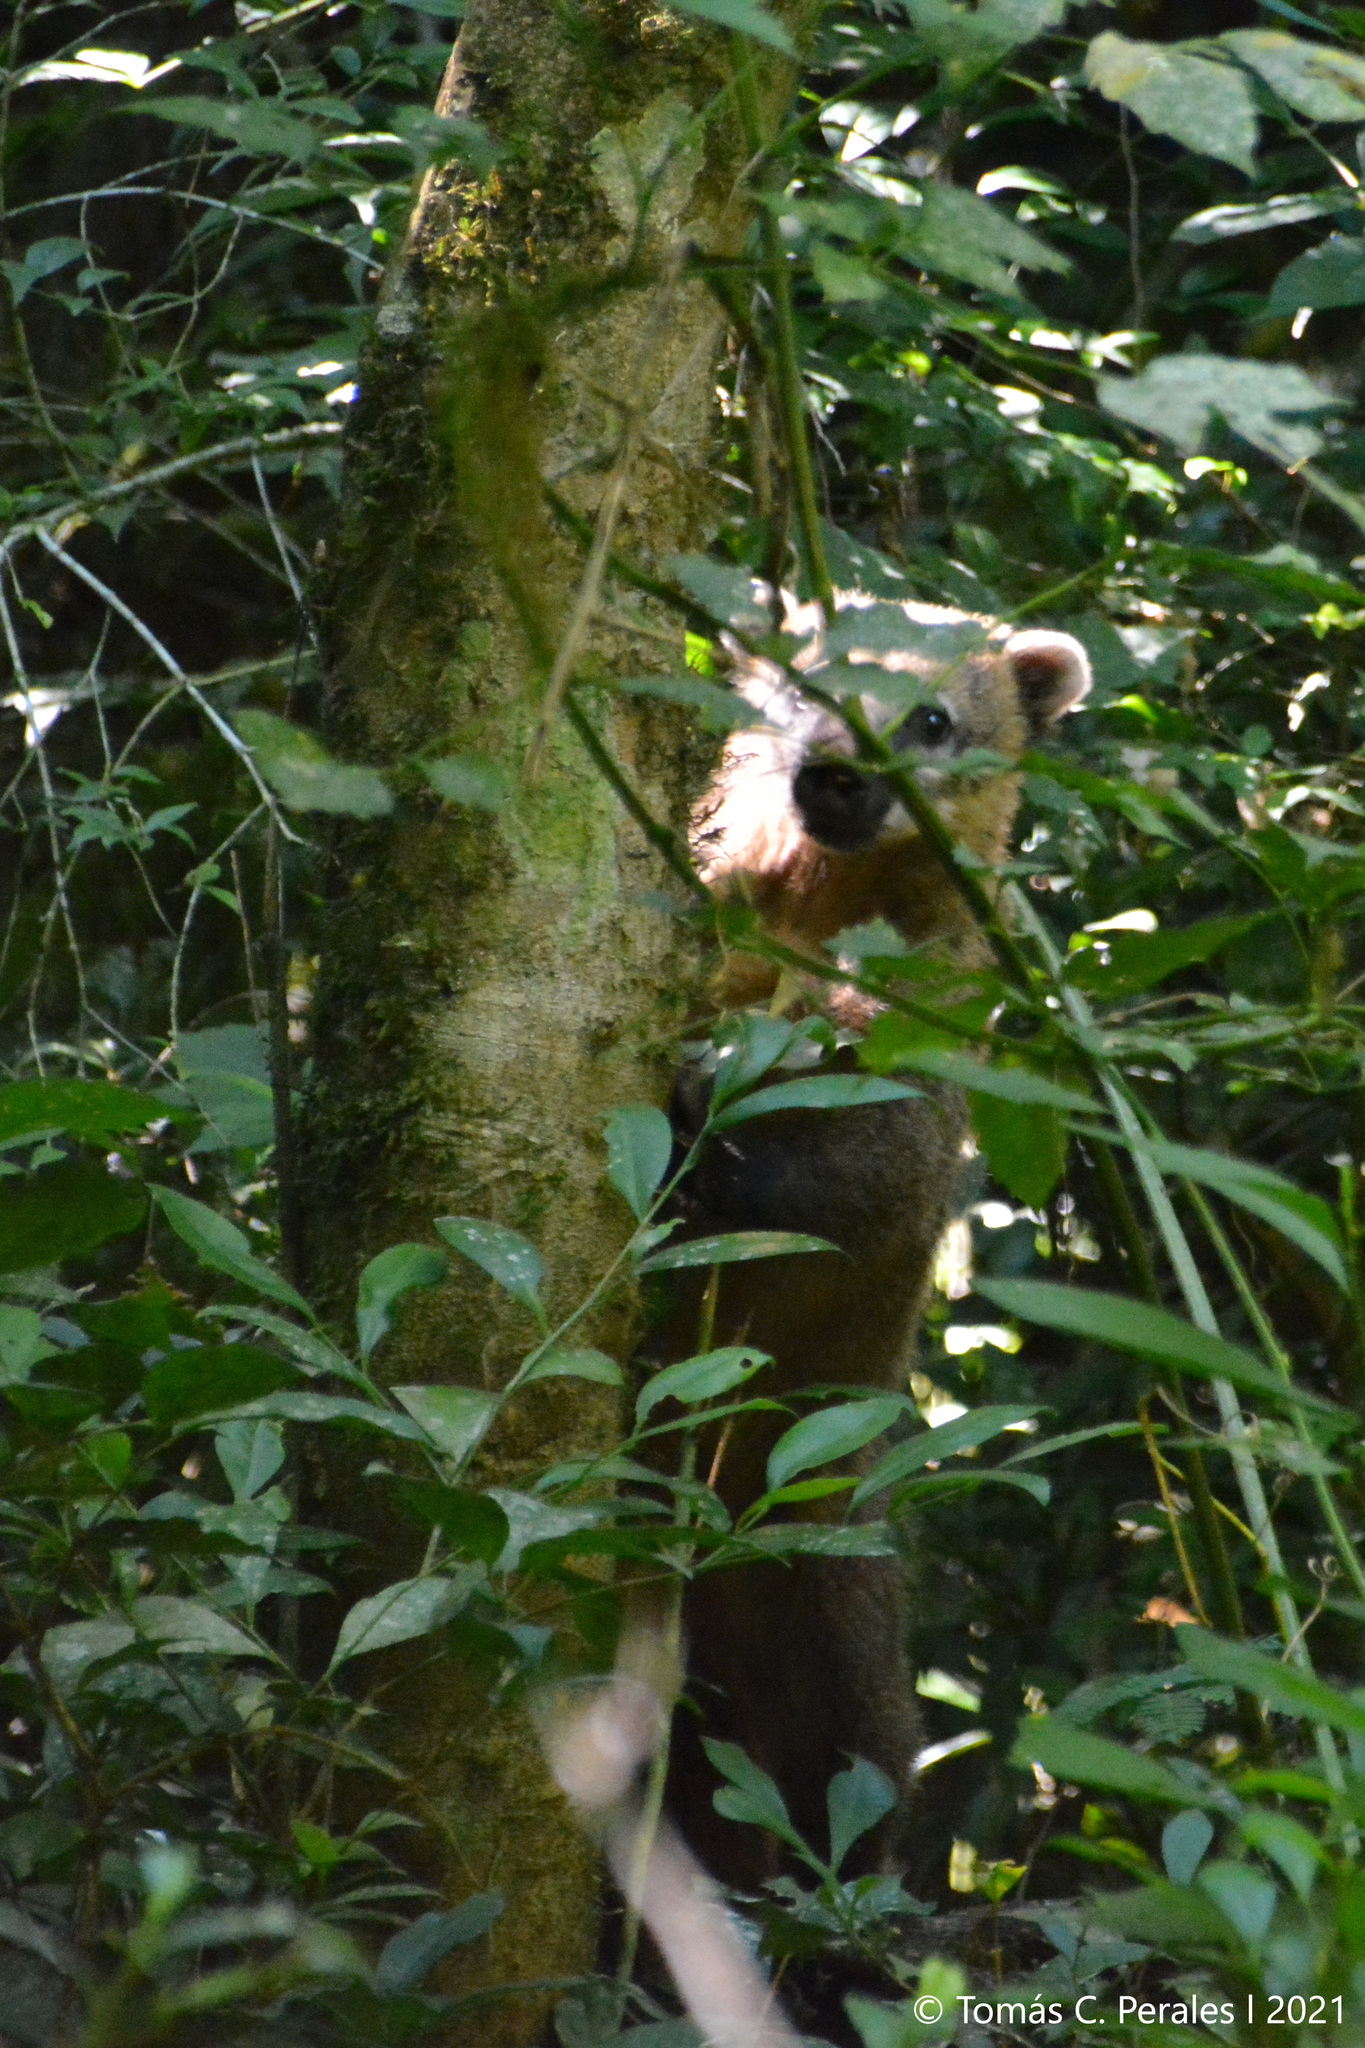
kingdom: Animalia
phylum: Chordata
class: Mammalia
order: Carnivora
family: Procyonidae
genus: Nasua
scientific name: Nasua nasua
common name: South american coati
